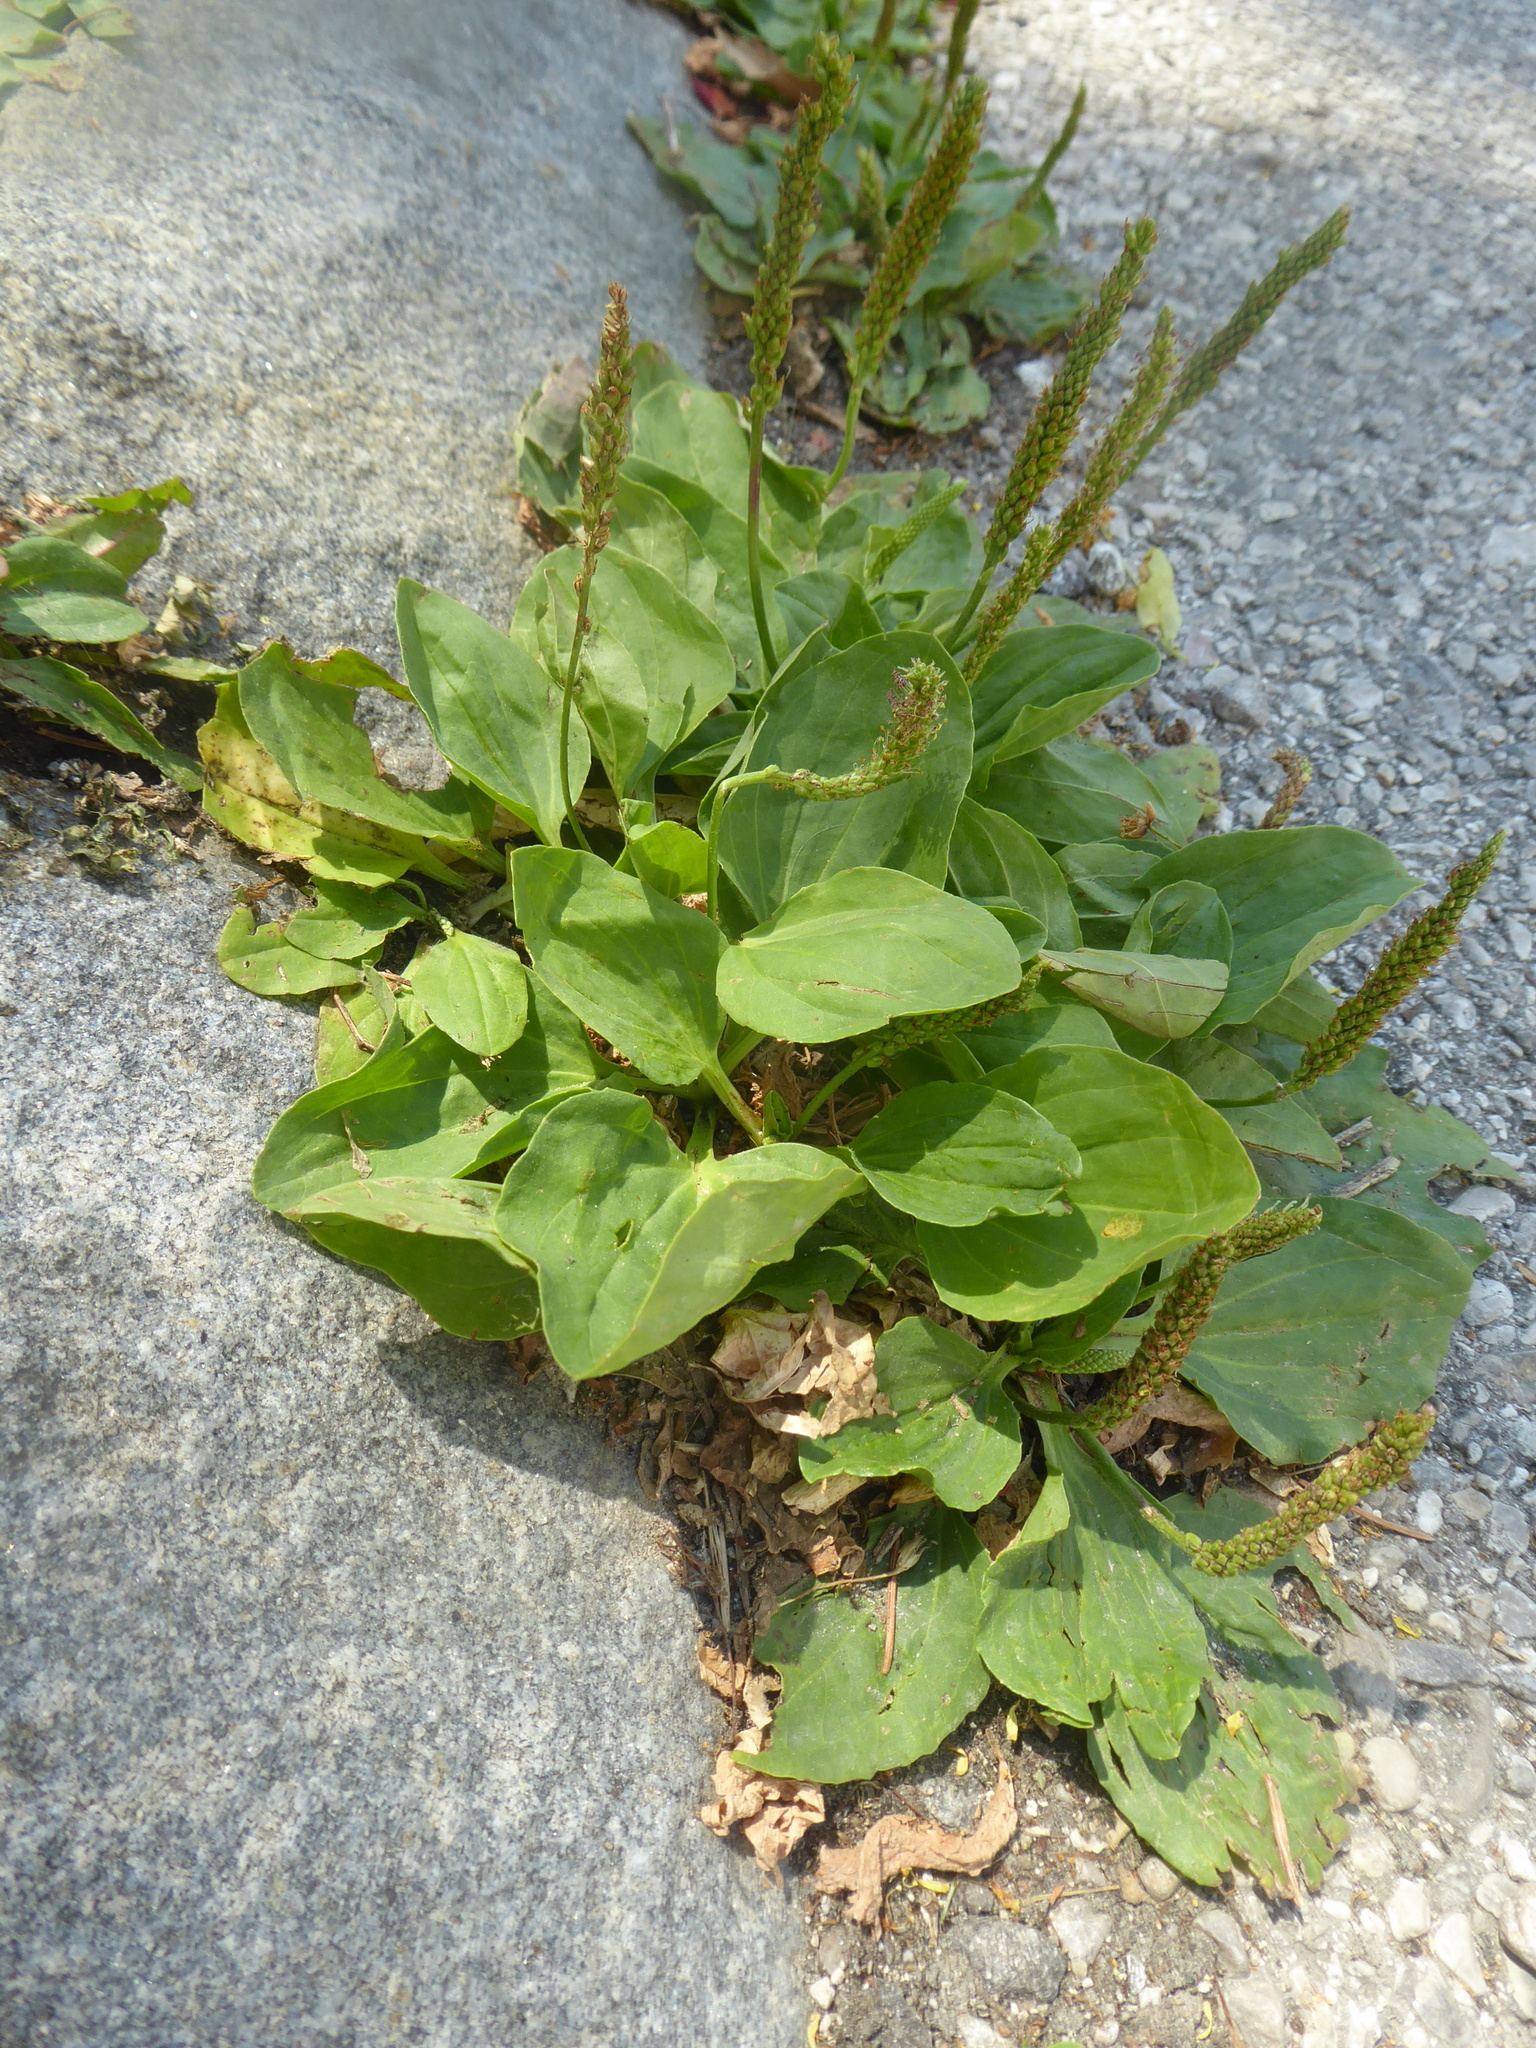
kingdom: Plantae
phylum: Tracheophyta
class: Magnoliopsida
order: Lamiales
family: Plantaginaceae
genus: Plantago
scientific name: Plantago major
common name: Common plantain
